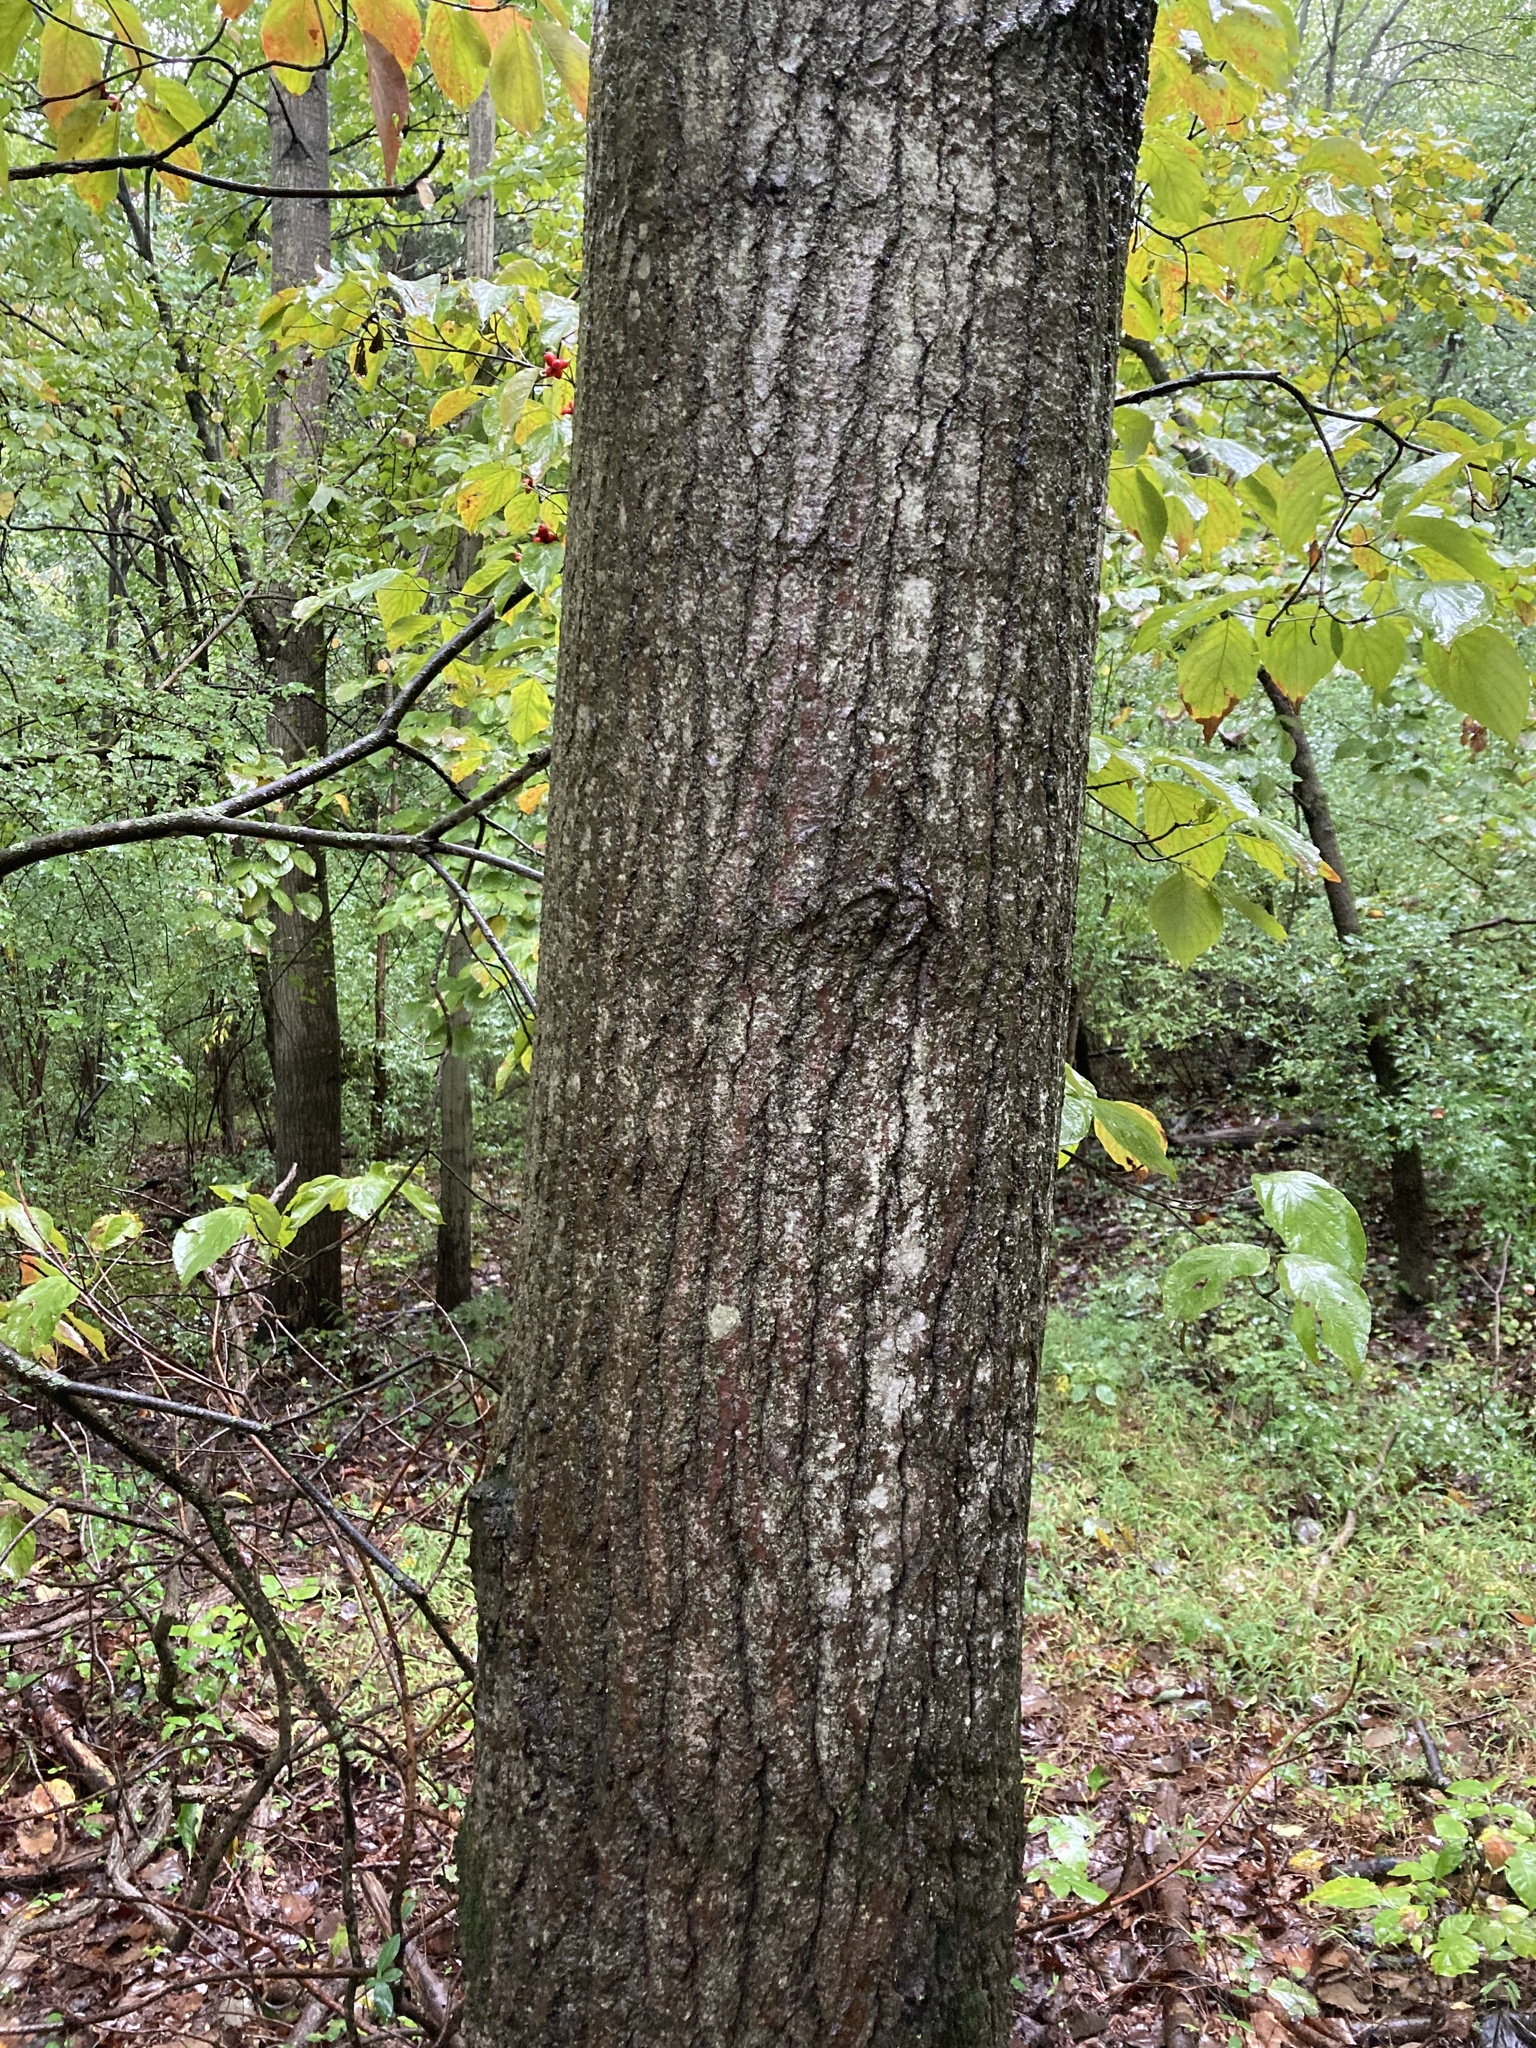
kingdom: Plantae
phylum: Tracheophyta
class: Magnoliopsida
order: Malpighiales
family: Salicaceae
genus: Populus
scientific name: Populus grandidentata
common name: Bigtooth aspen
